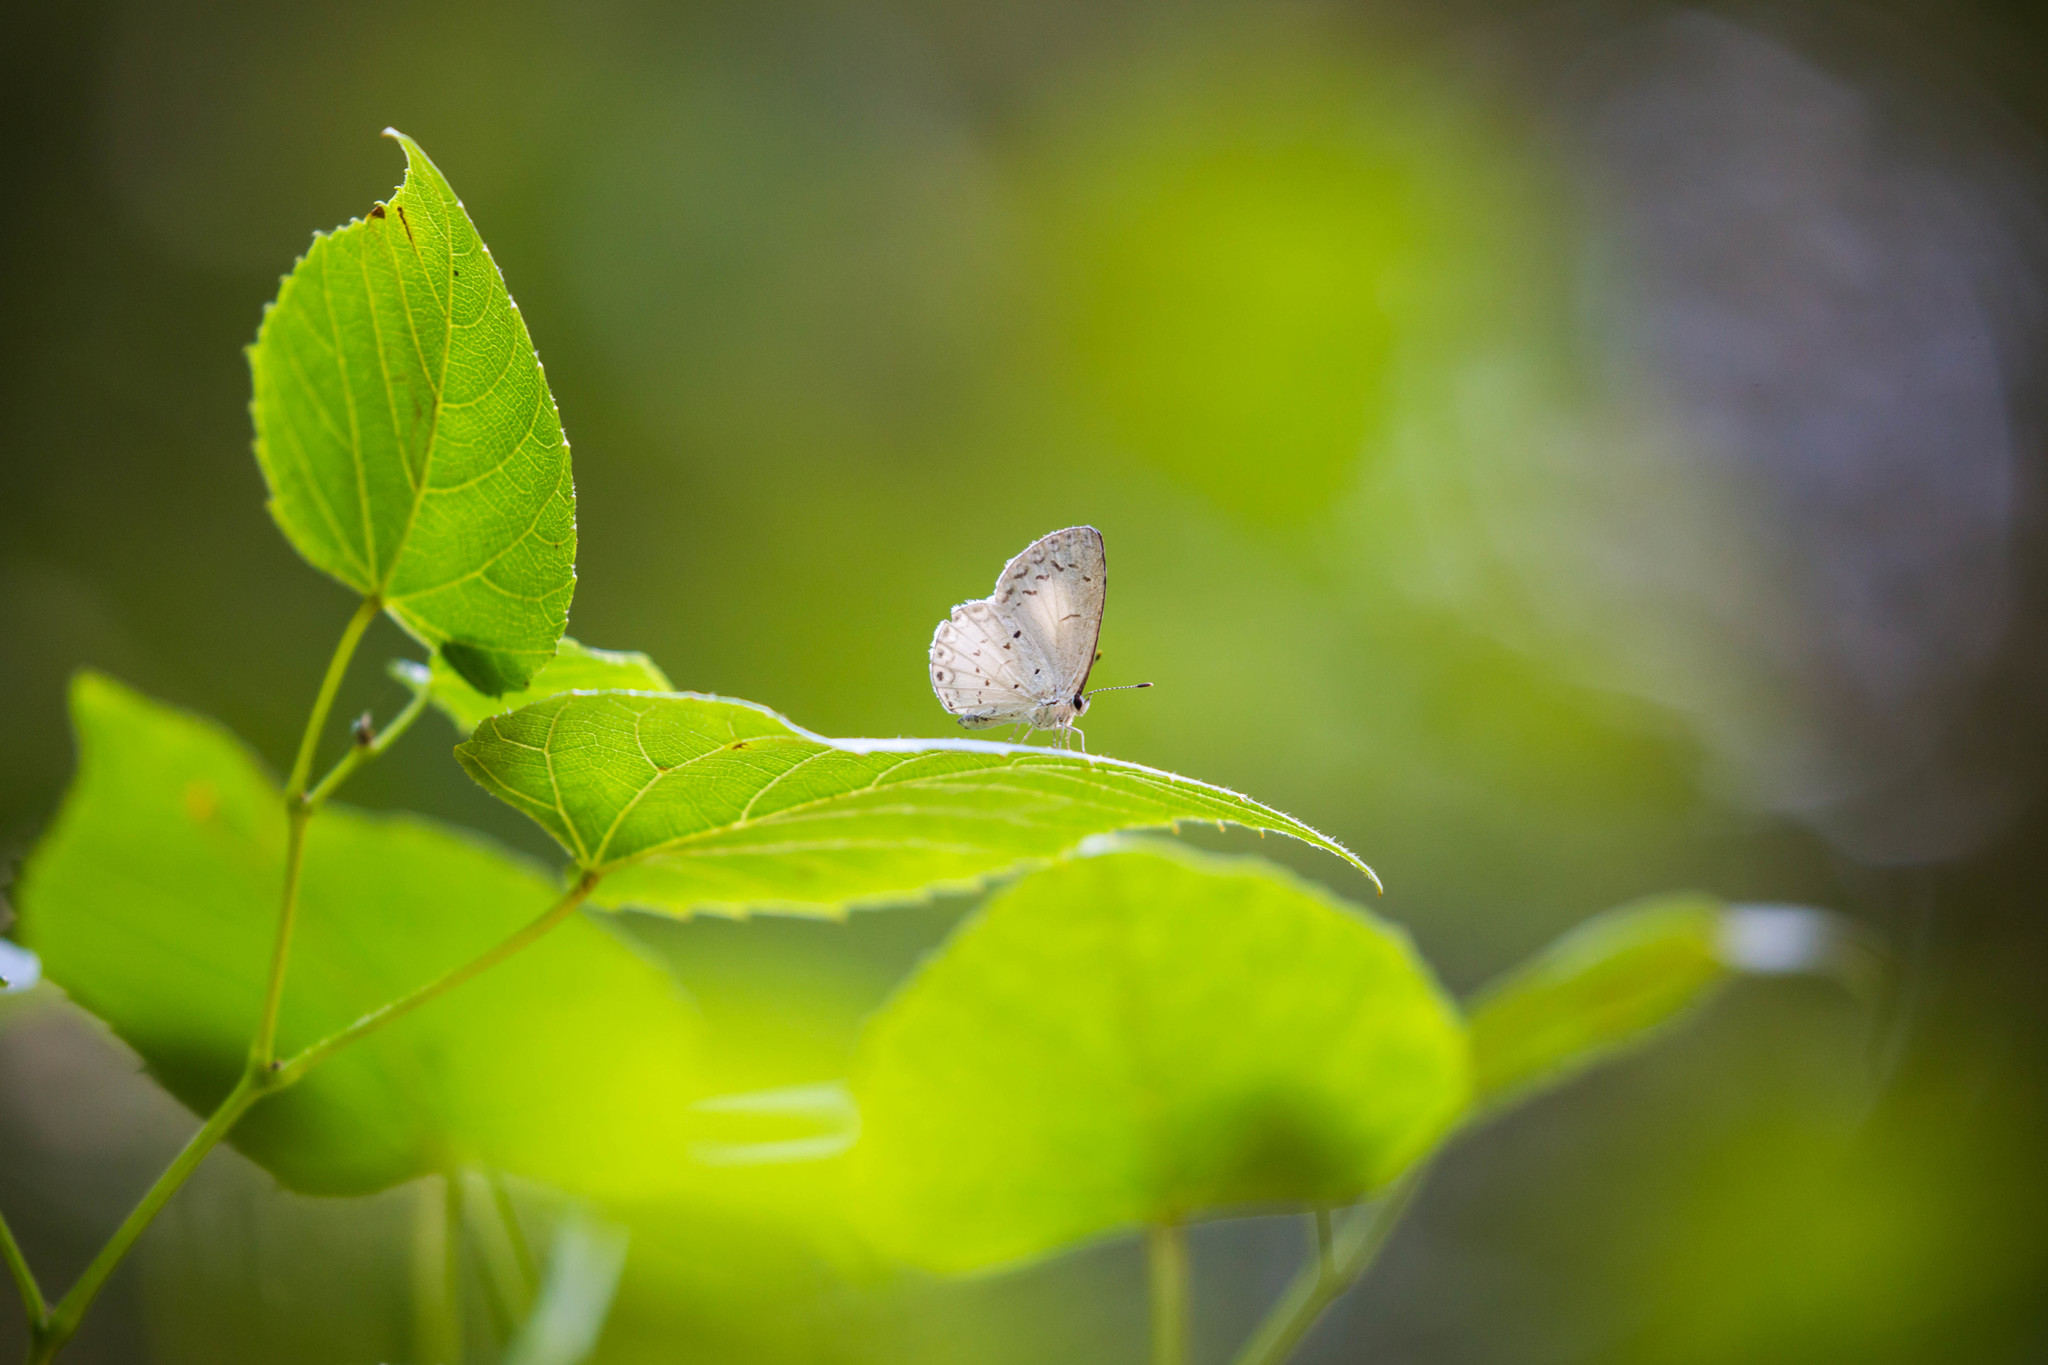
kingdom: Animalia
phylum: Arthropoda
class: Insecta
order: Lepidoptera
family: Lycaenidae
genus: Cyaniris
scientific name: Cyaniris neglecta
